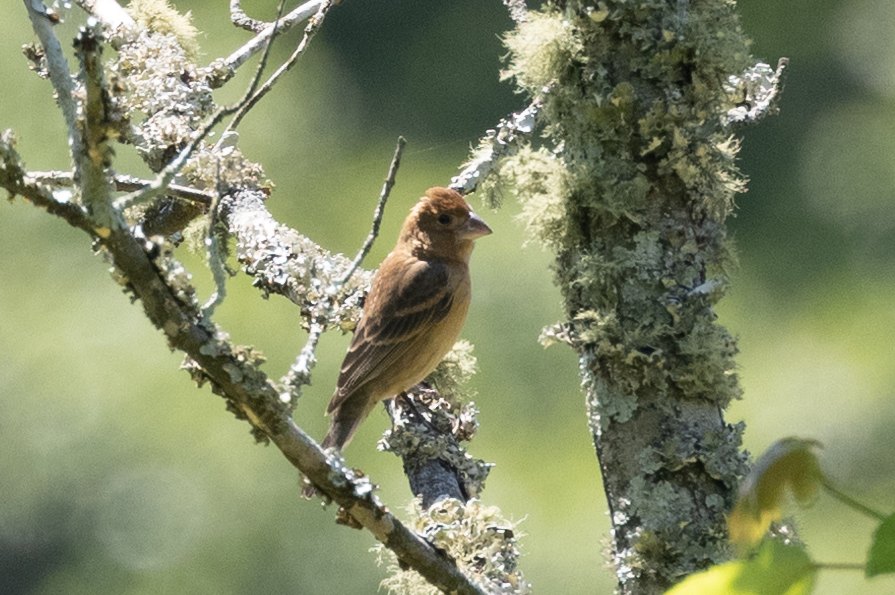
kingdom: Animalia
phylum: Chordata
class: Aves
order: Passeriformes
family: Cardinalidae
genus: Passerina
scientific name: Passerina caerulea
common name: Blue grosbeak
